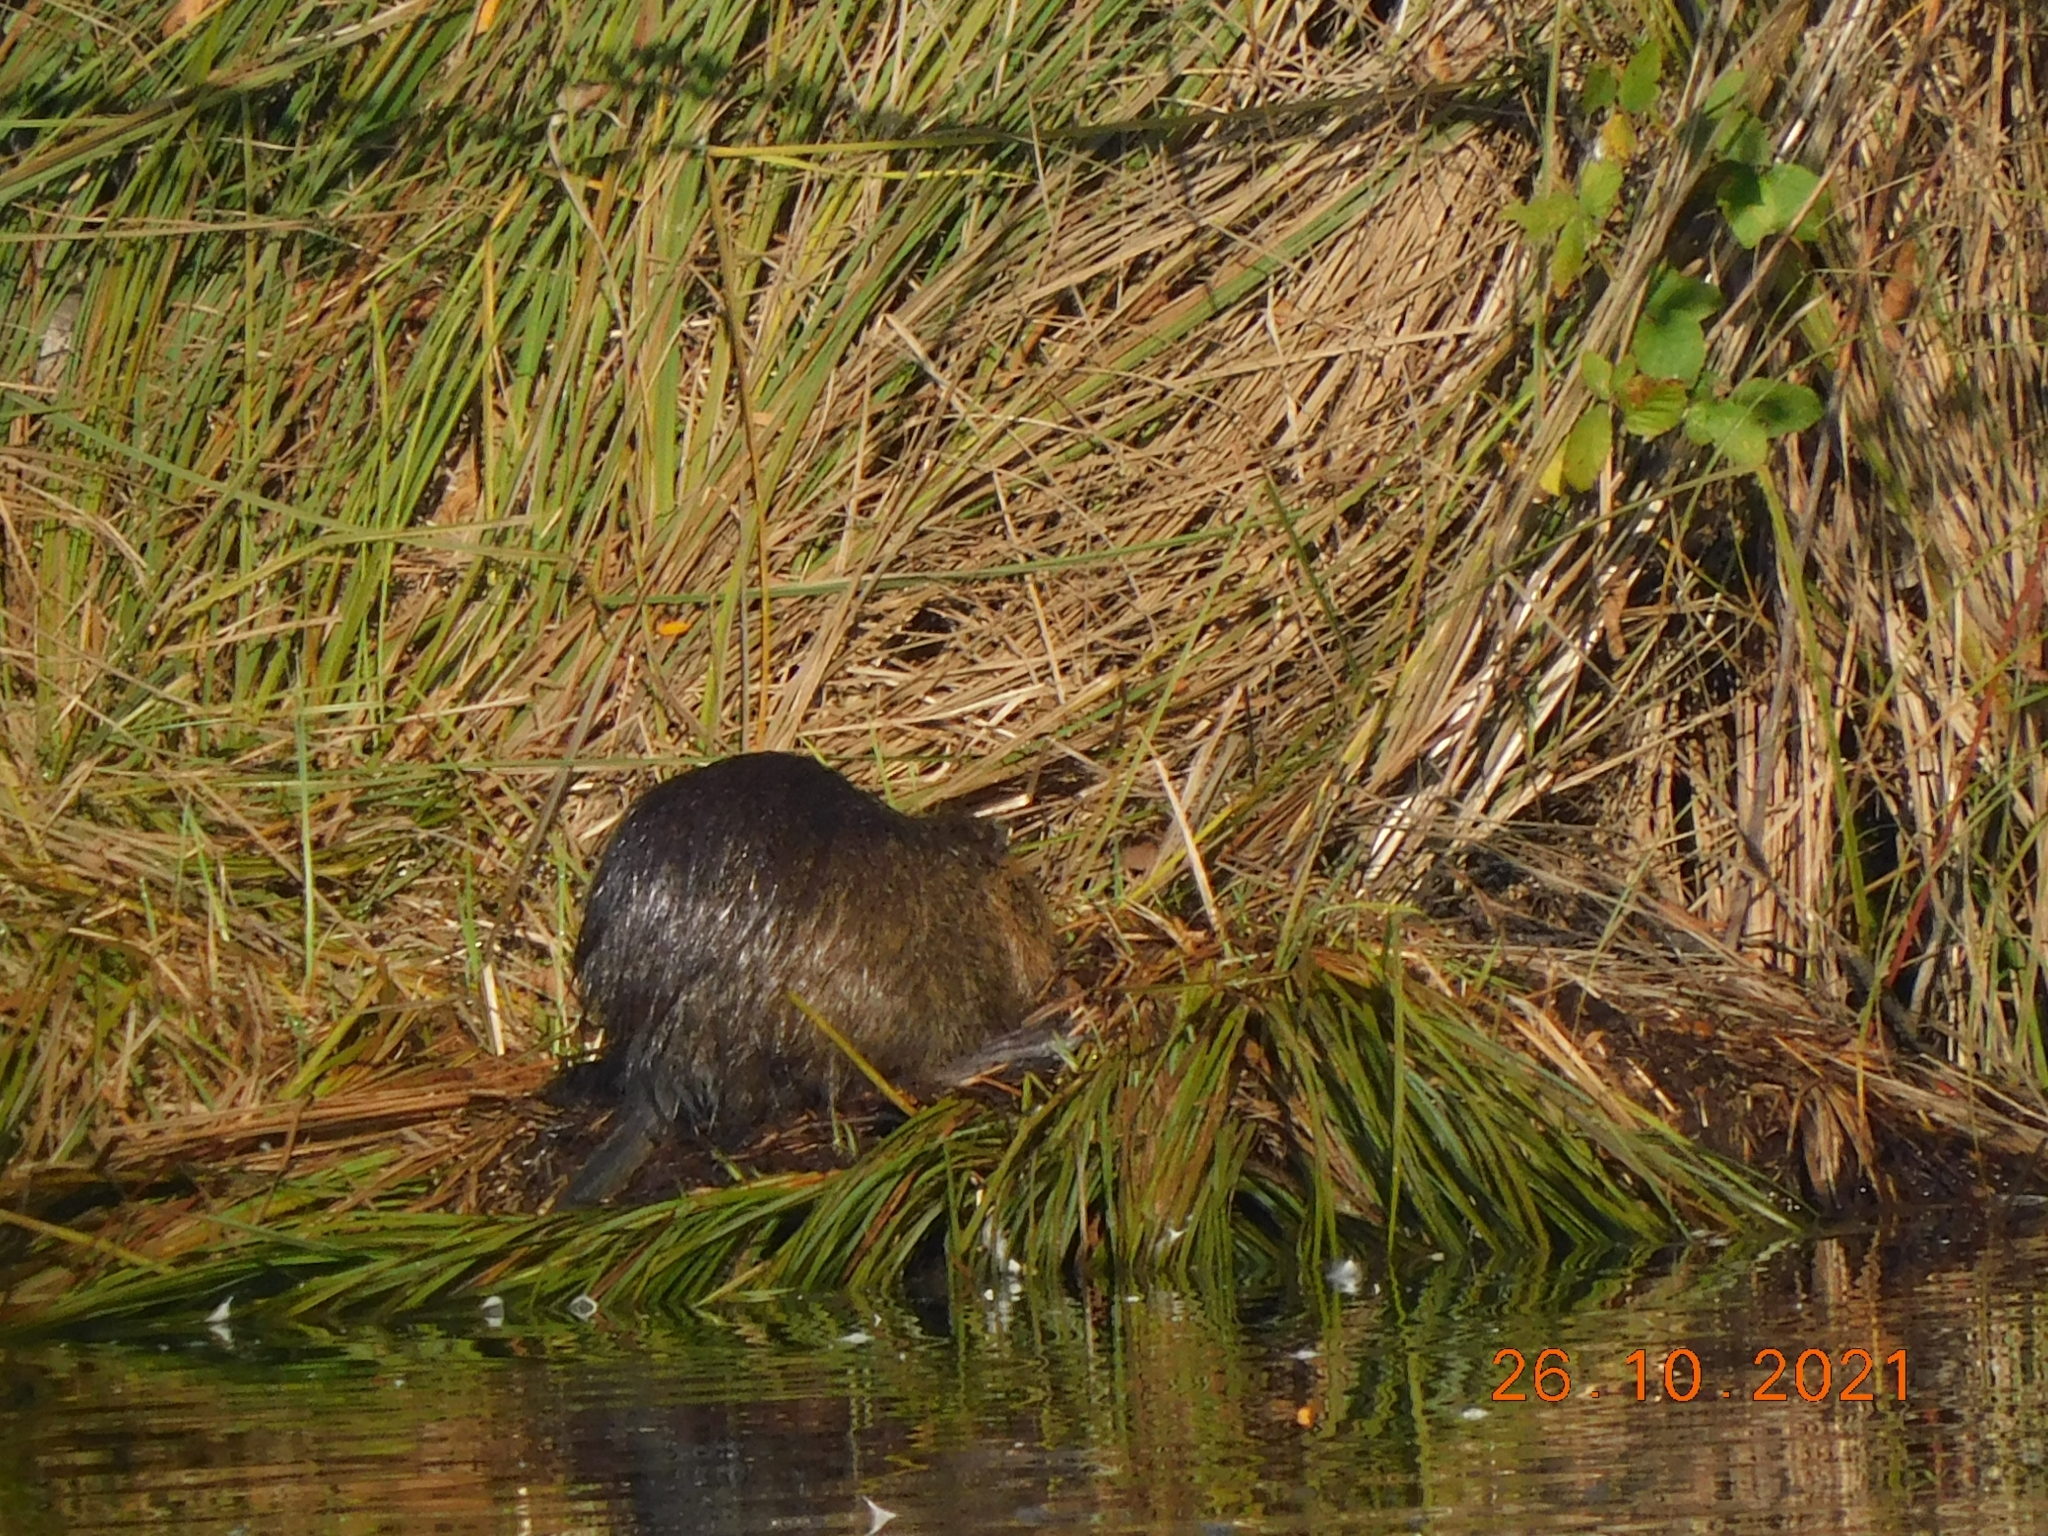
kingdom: Animalia
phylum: Chordata
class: Mammalia
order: Rodentia
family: Myocastoridae
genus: Myocastor
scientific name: Myocastor coypus
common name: Coypu
